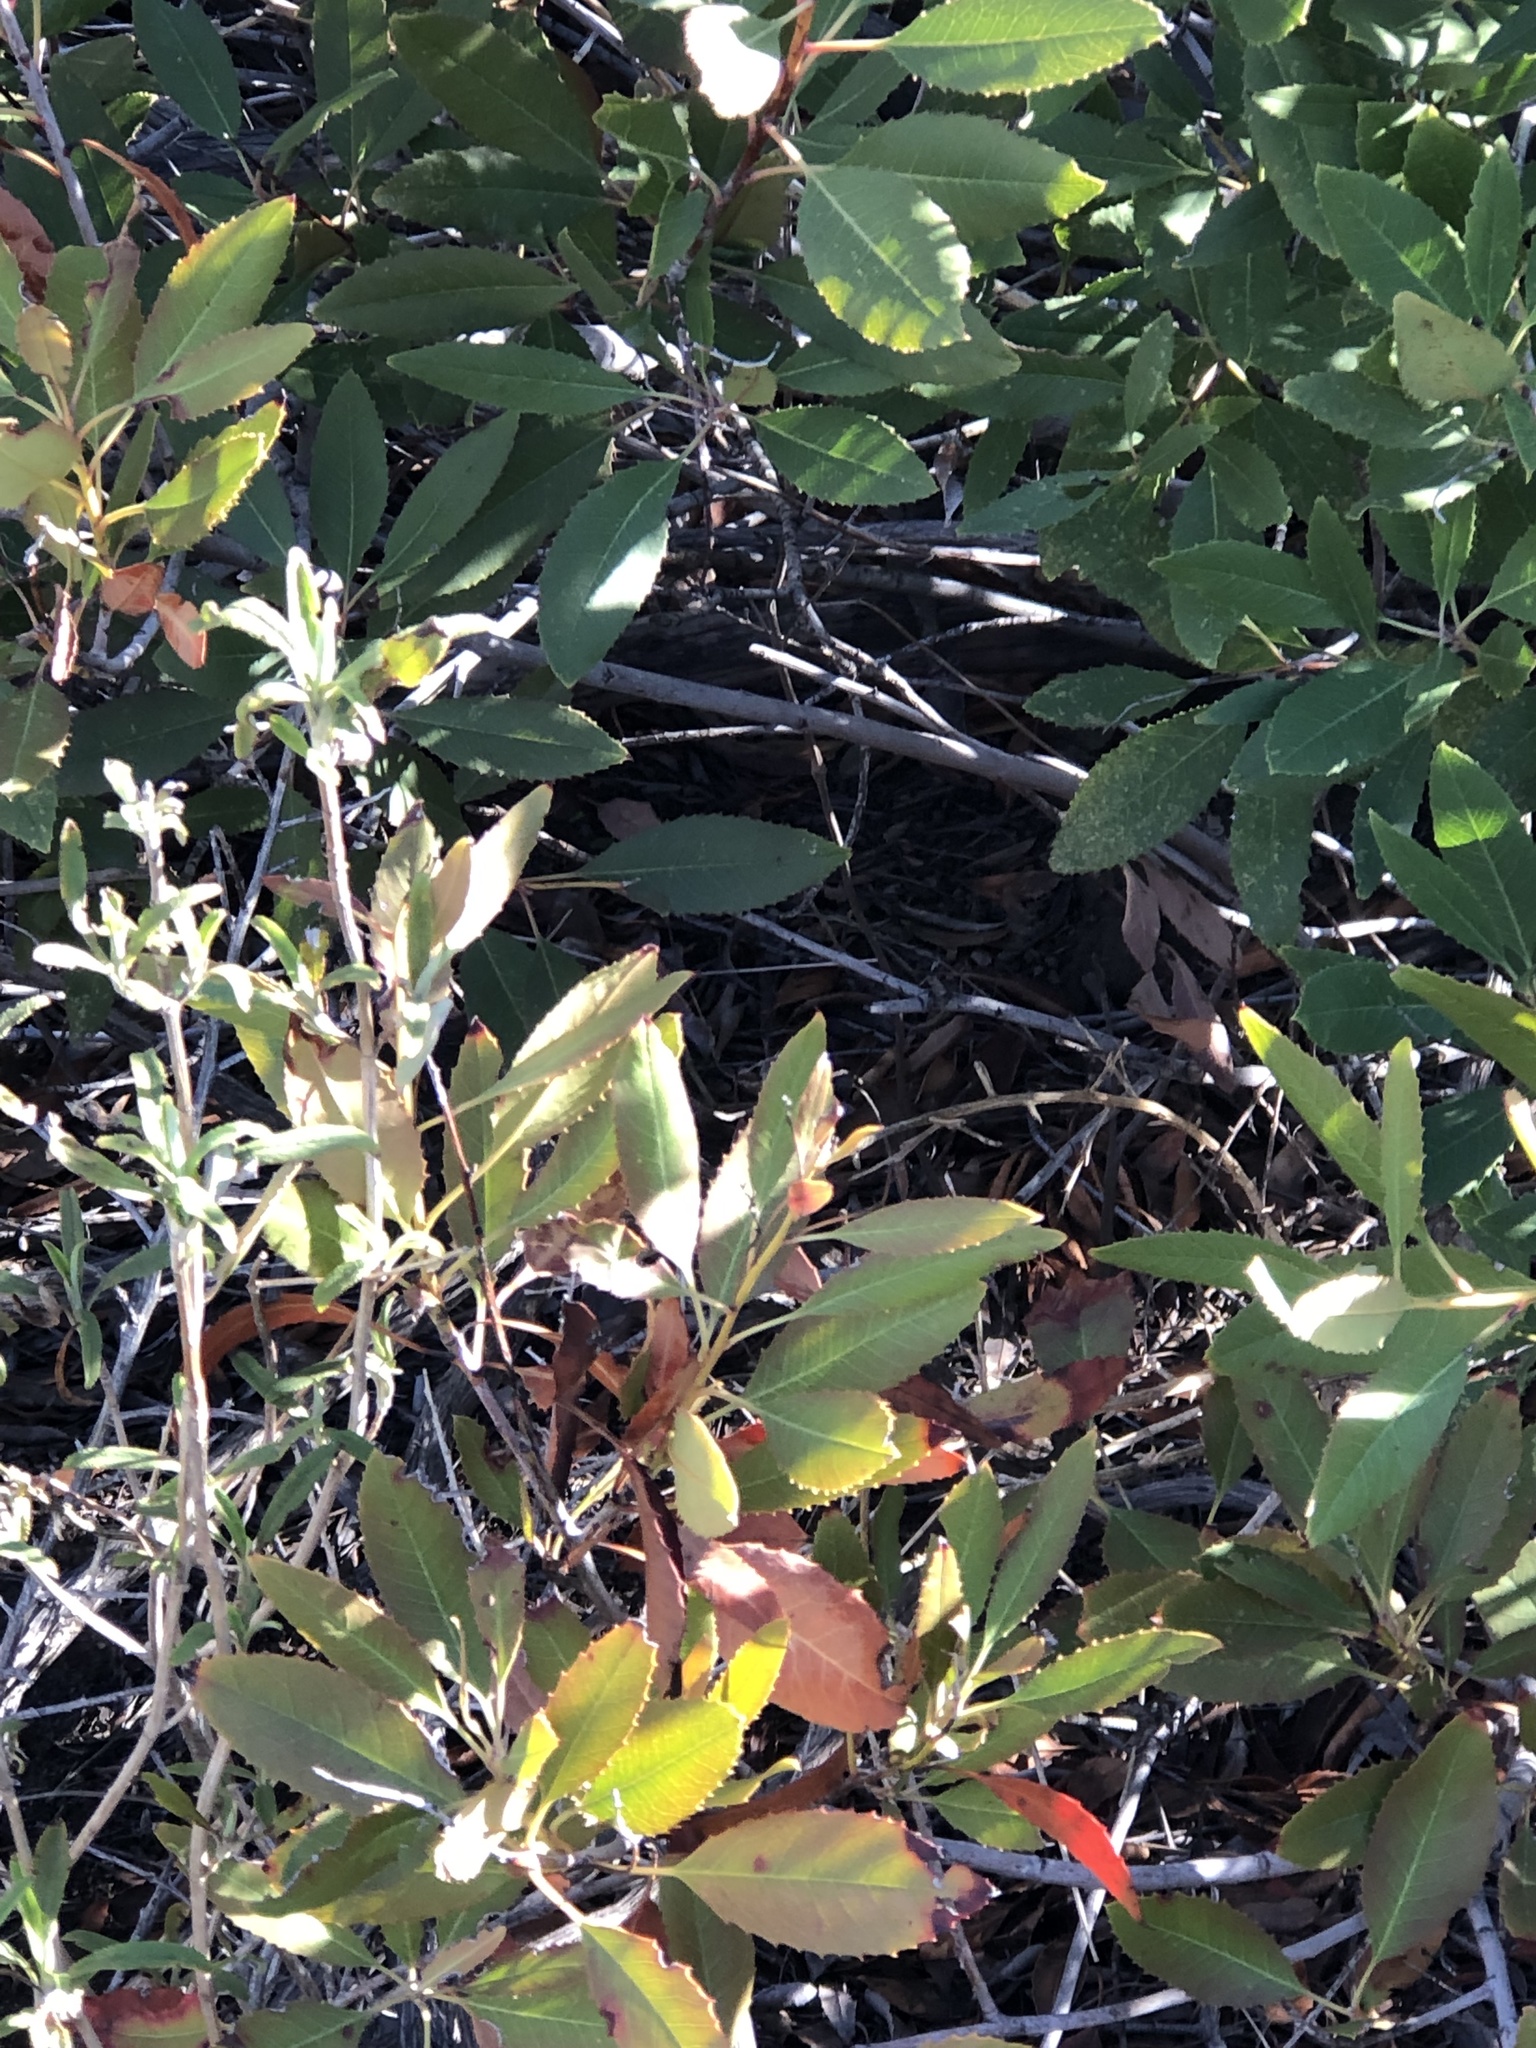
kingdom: Plantae
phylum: Tracheophyta
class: Magnoliopsida
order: Rosales
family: Rosaceae
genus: Heteromeles
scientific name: Heteromeles arbutifolia
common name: California-holly
